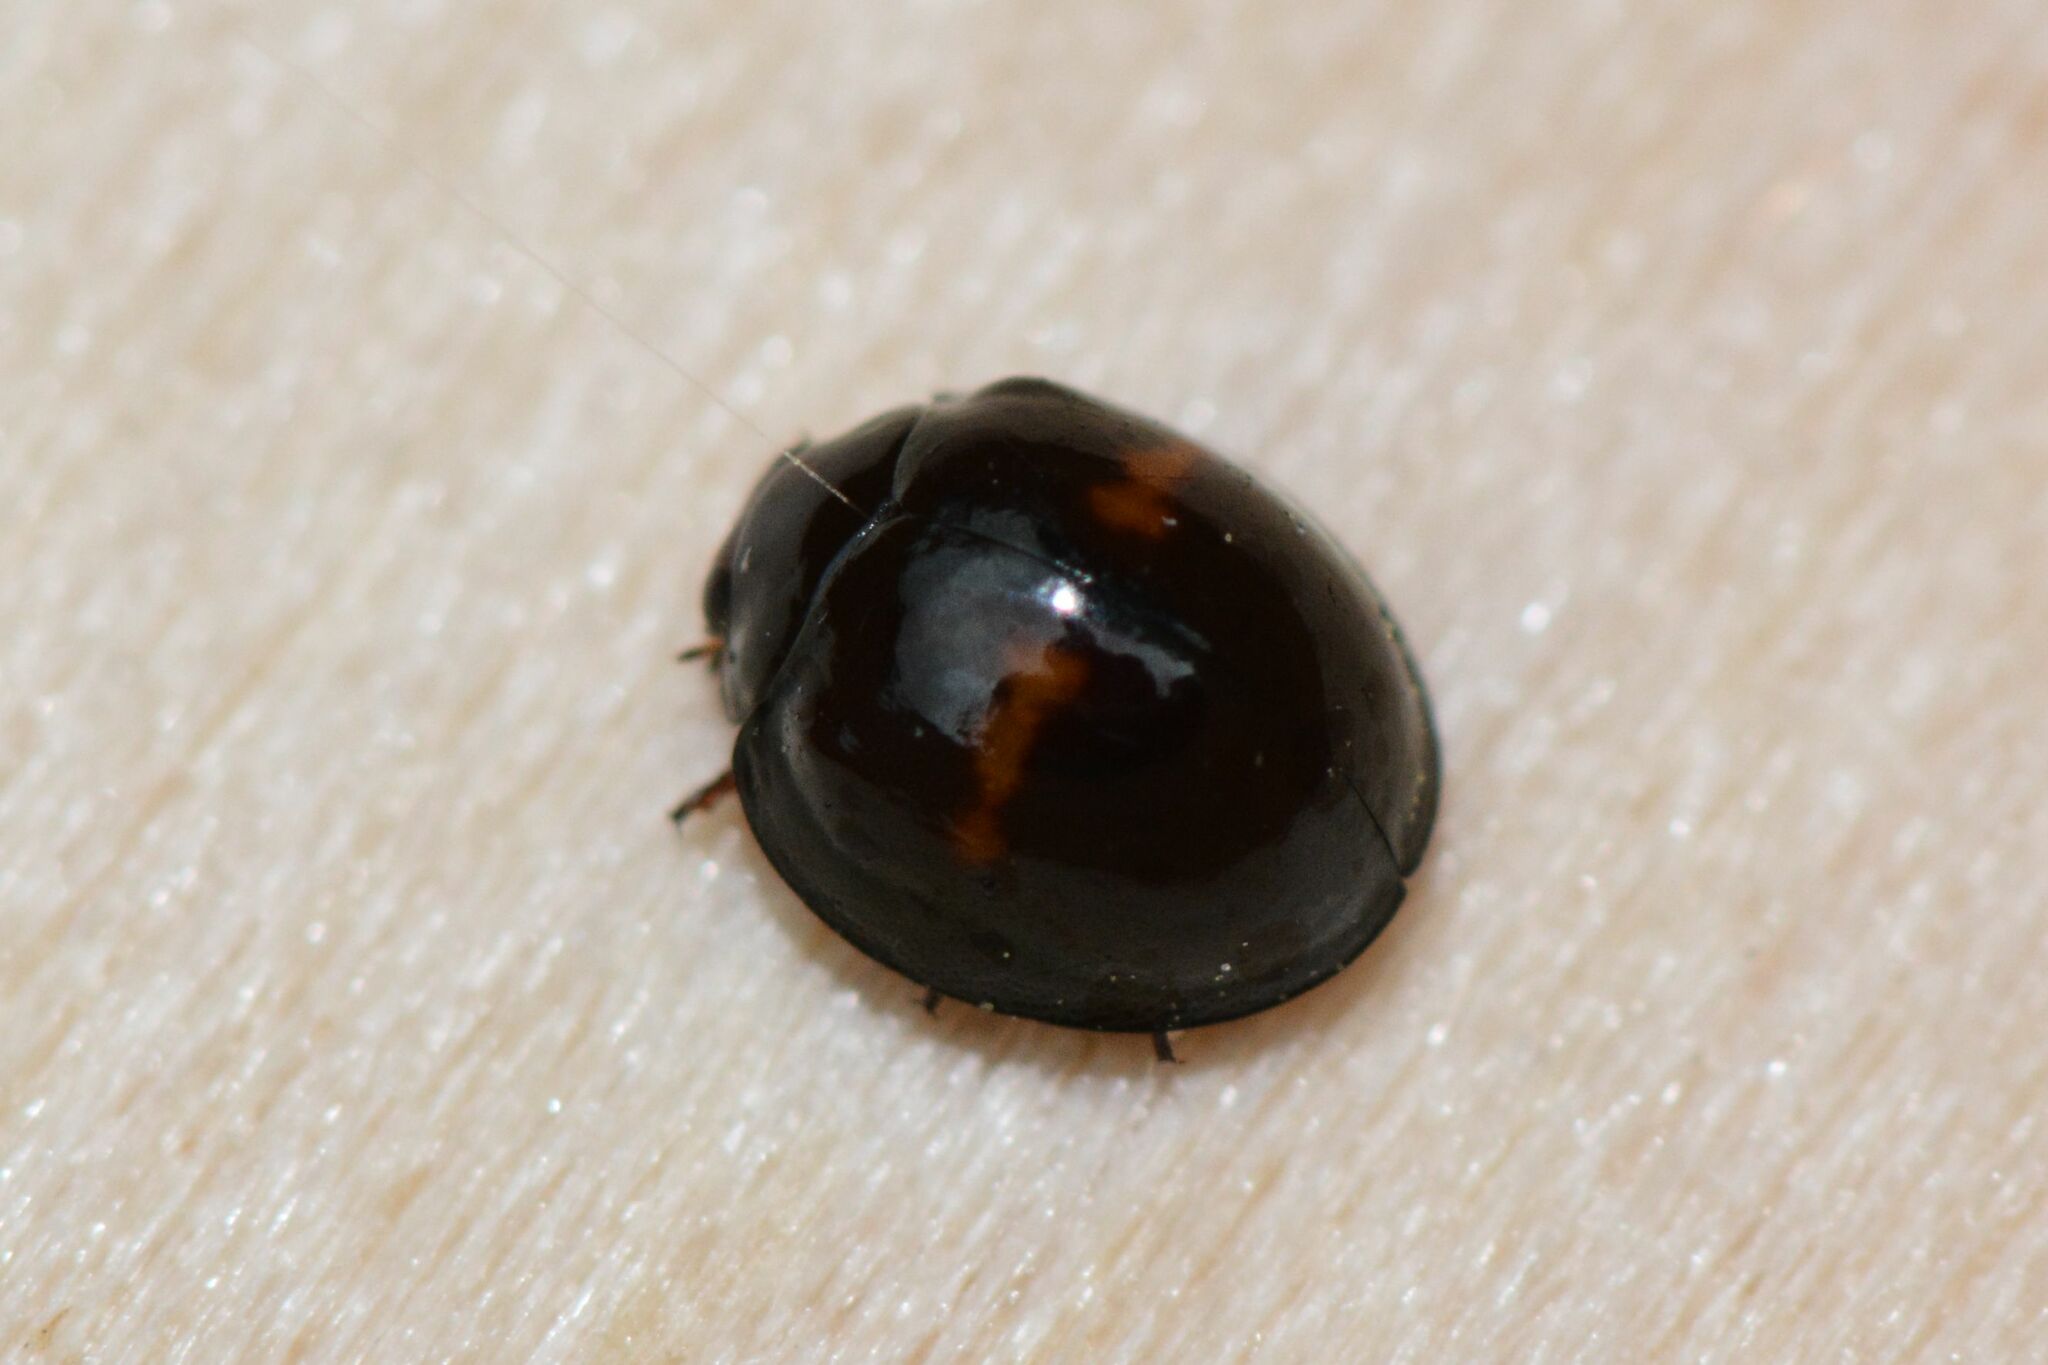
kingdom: Animalia
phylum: Arthropoda
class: Insecta
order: Coleoptera
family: Coccinellidae
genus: Chilocorus
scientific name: Chilocorus bipustulatus
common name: Heather ladybird
